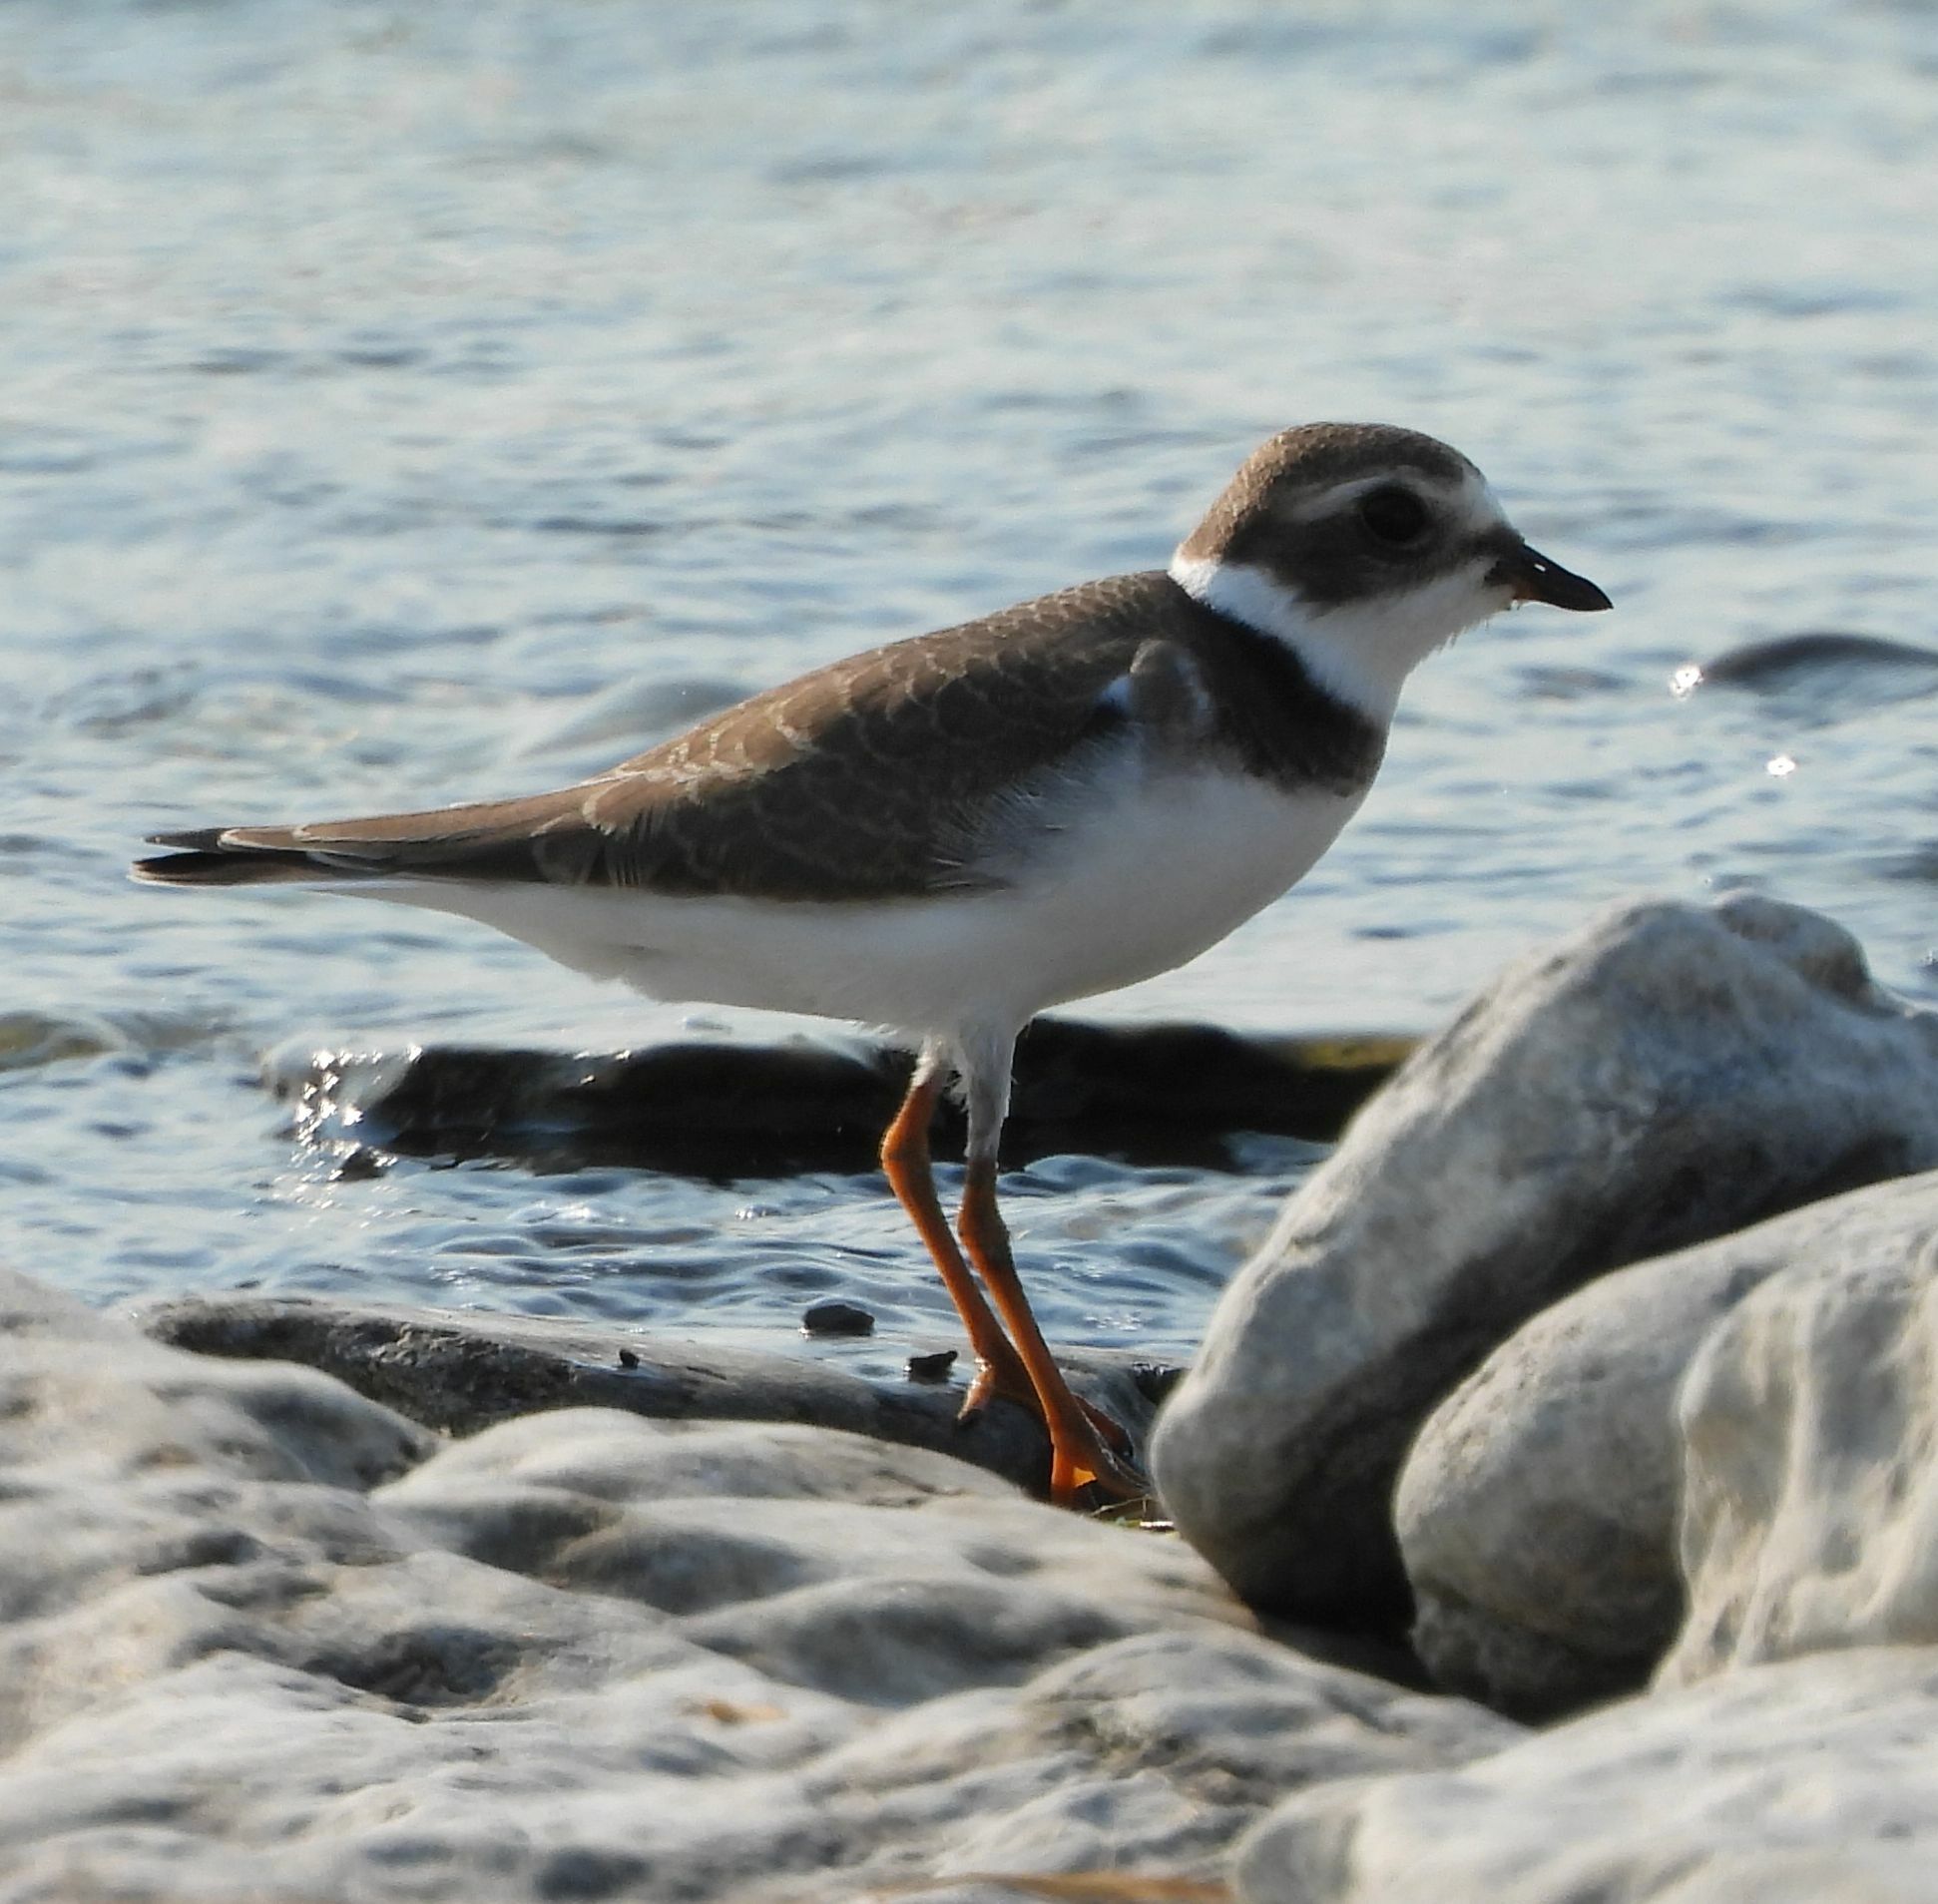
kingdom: Animalia
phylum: Chordata
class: Aves
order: Charadriiformes
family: Charadriidae
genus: Charadrius
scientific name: Charadrius semipalmatus
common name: Semipalmated plover
